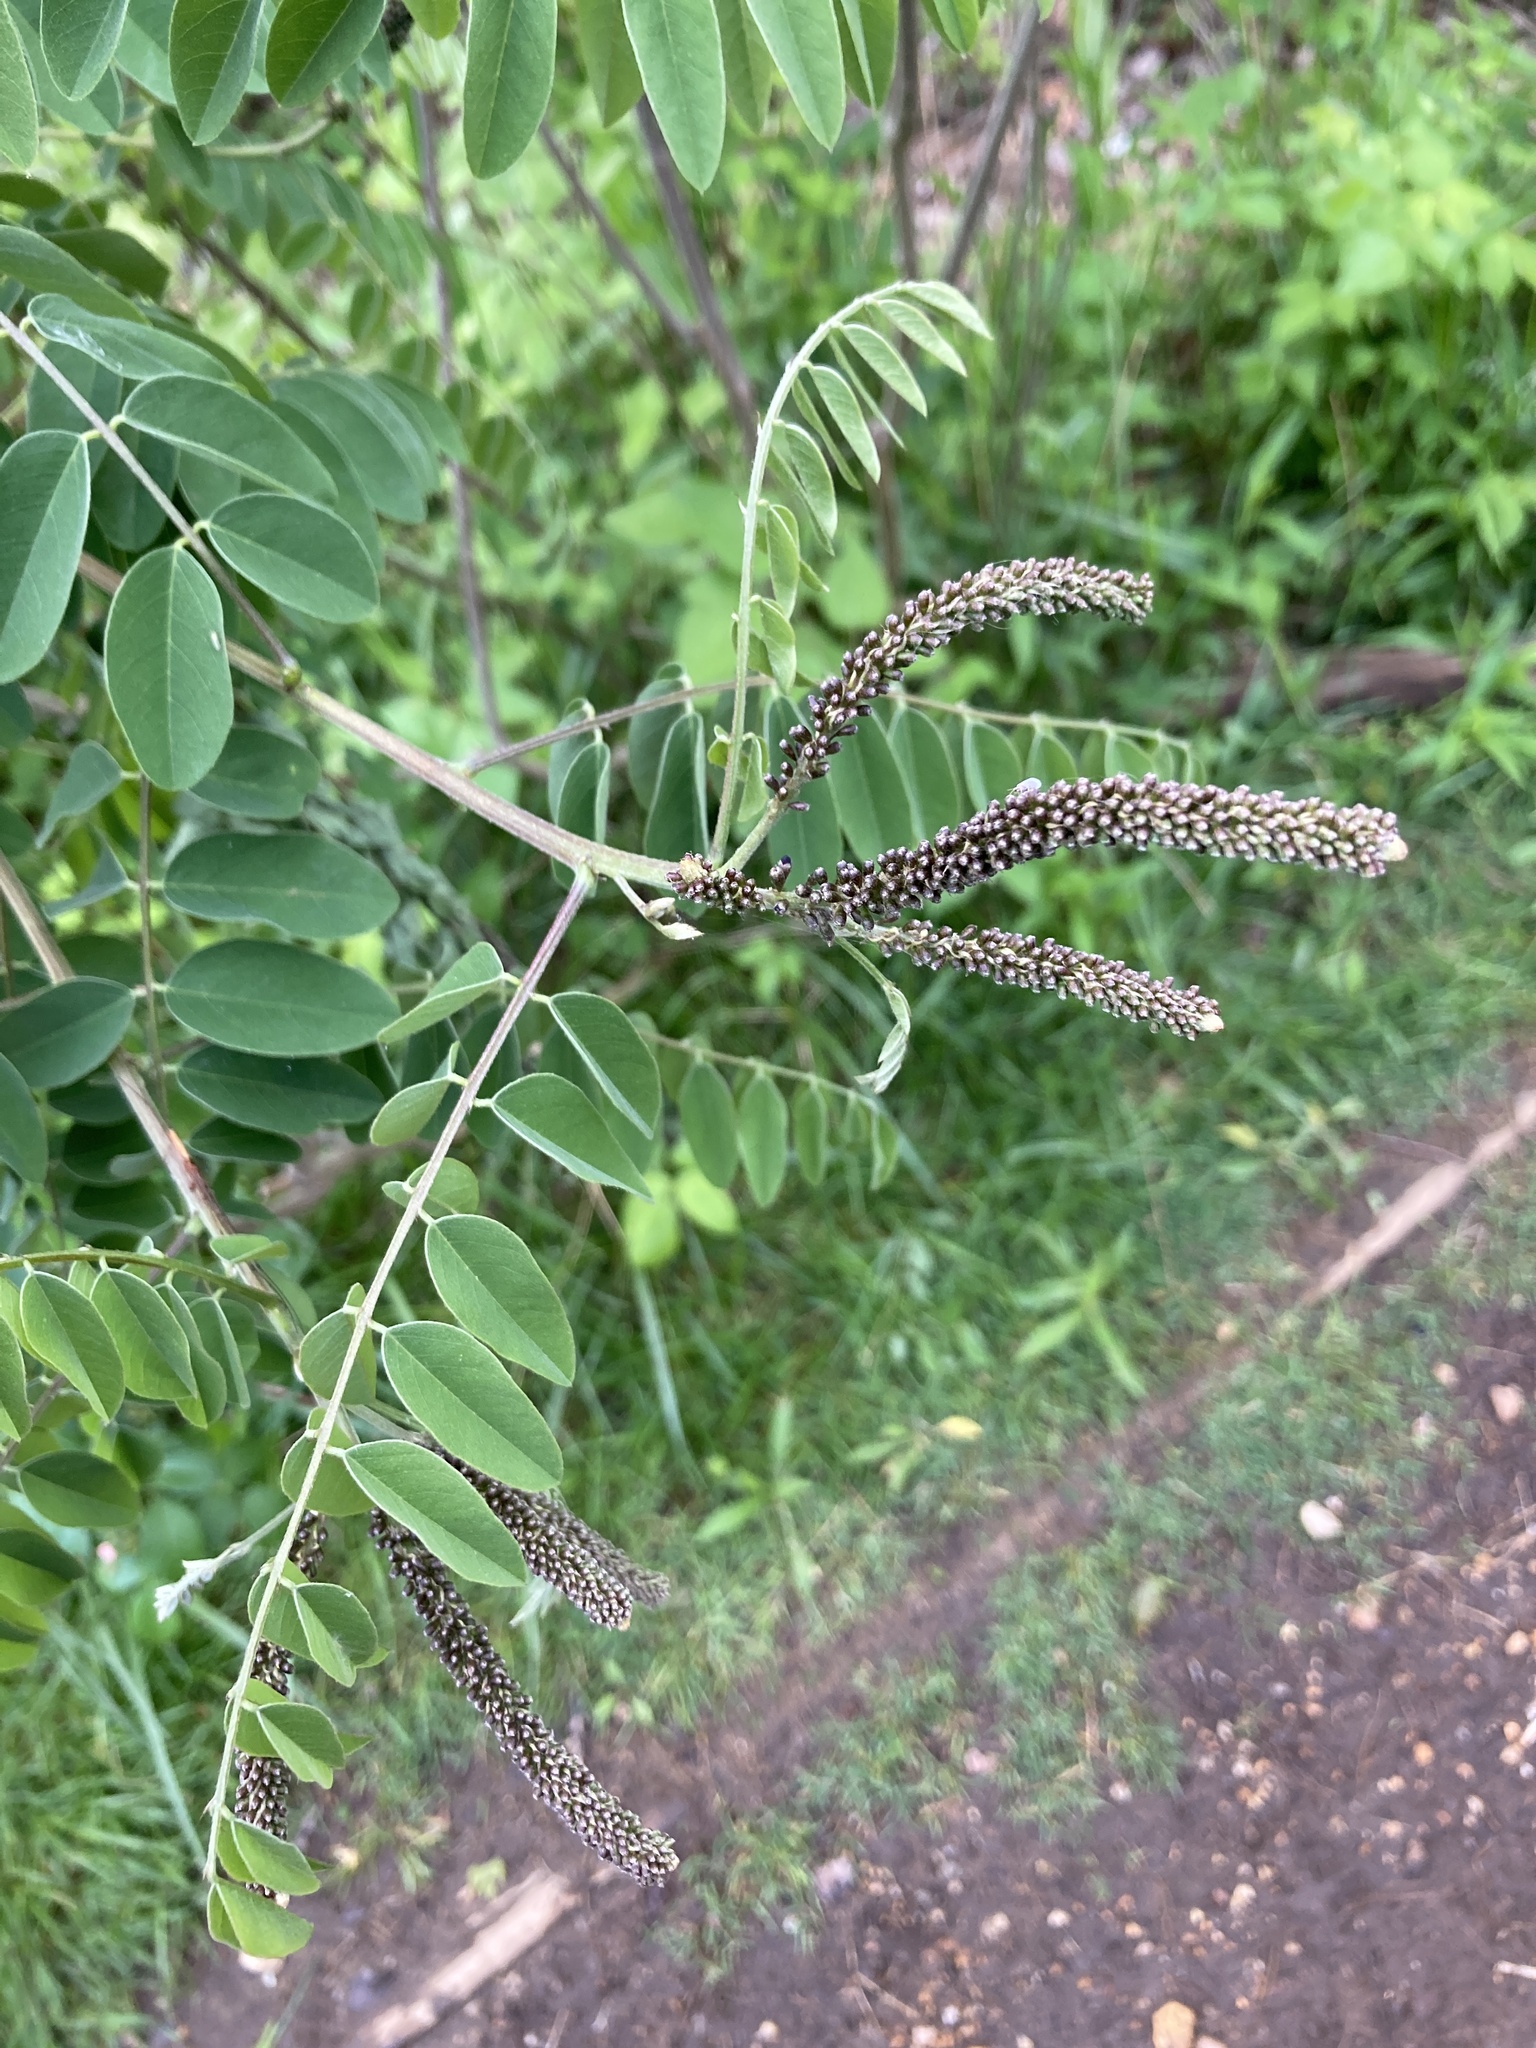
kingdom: Plantae
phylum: Tracheophyta
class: Magnoliopsida
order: Fabales
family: Fabaceae
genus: Amorpha
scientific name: Amorpha fruticosa
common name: False indigo
